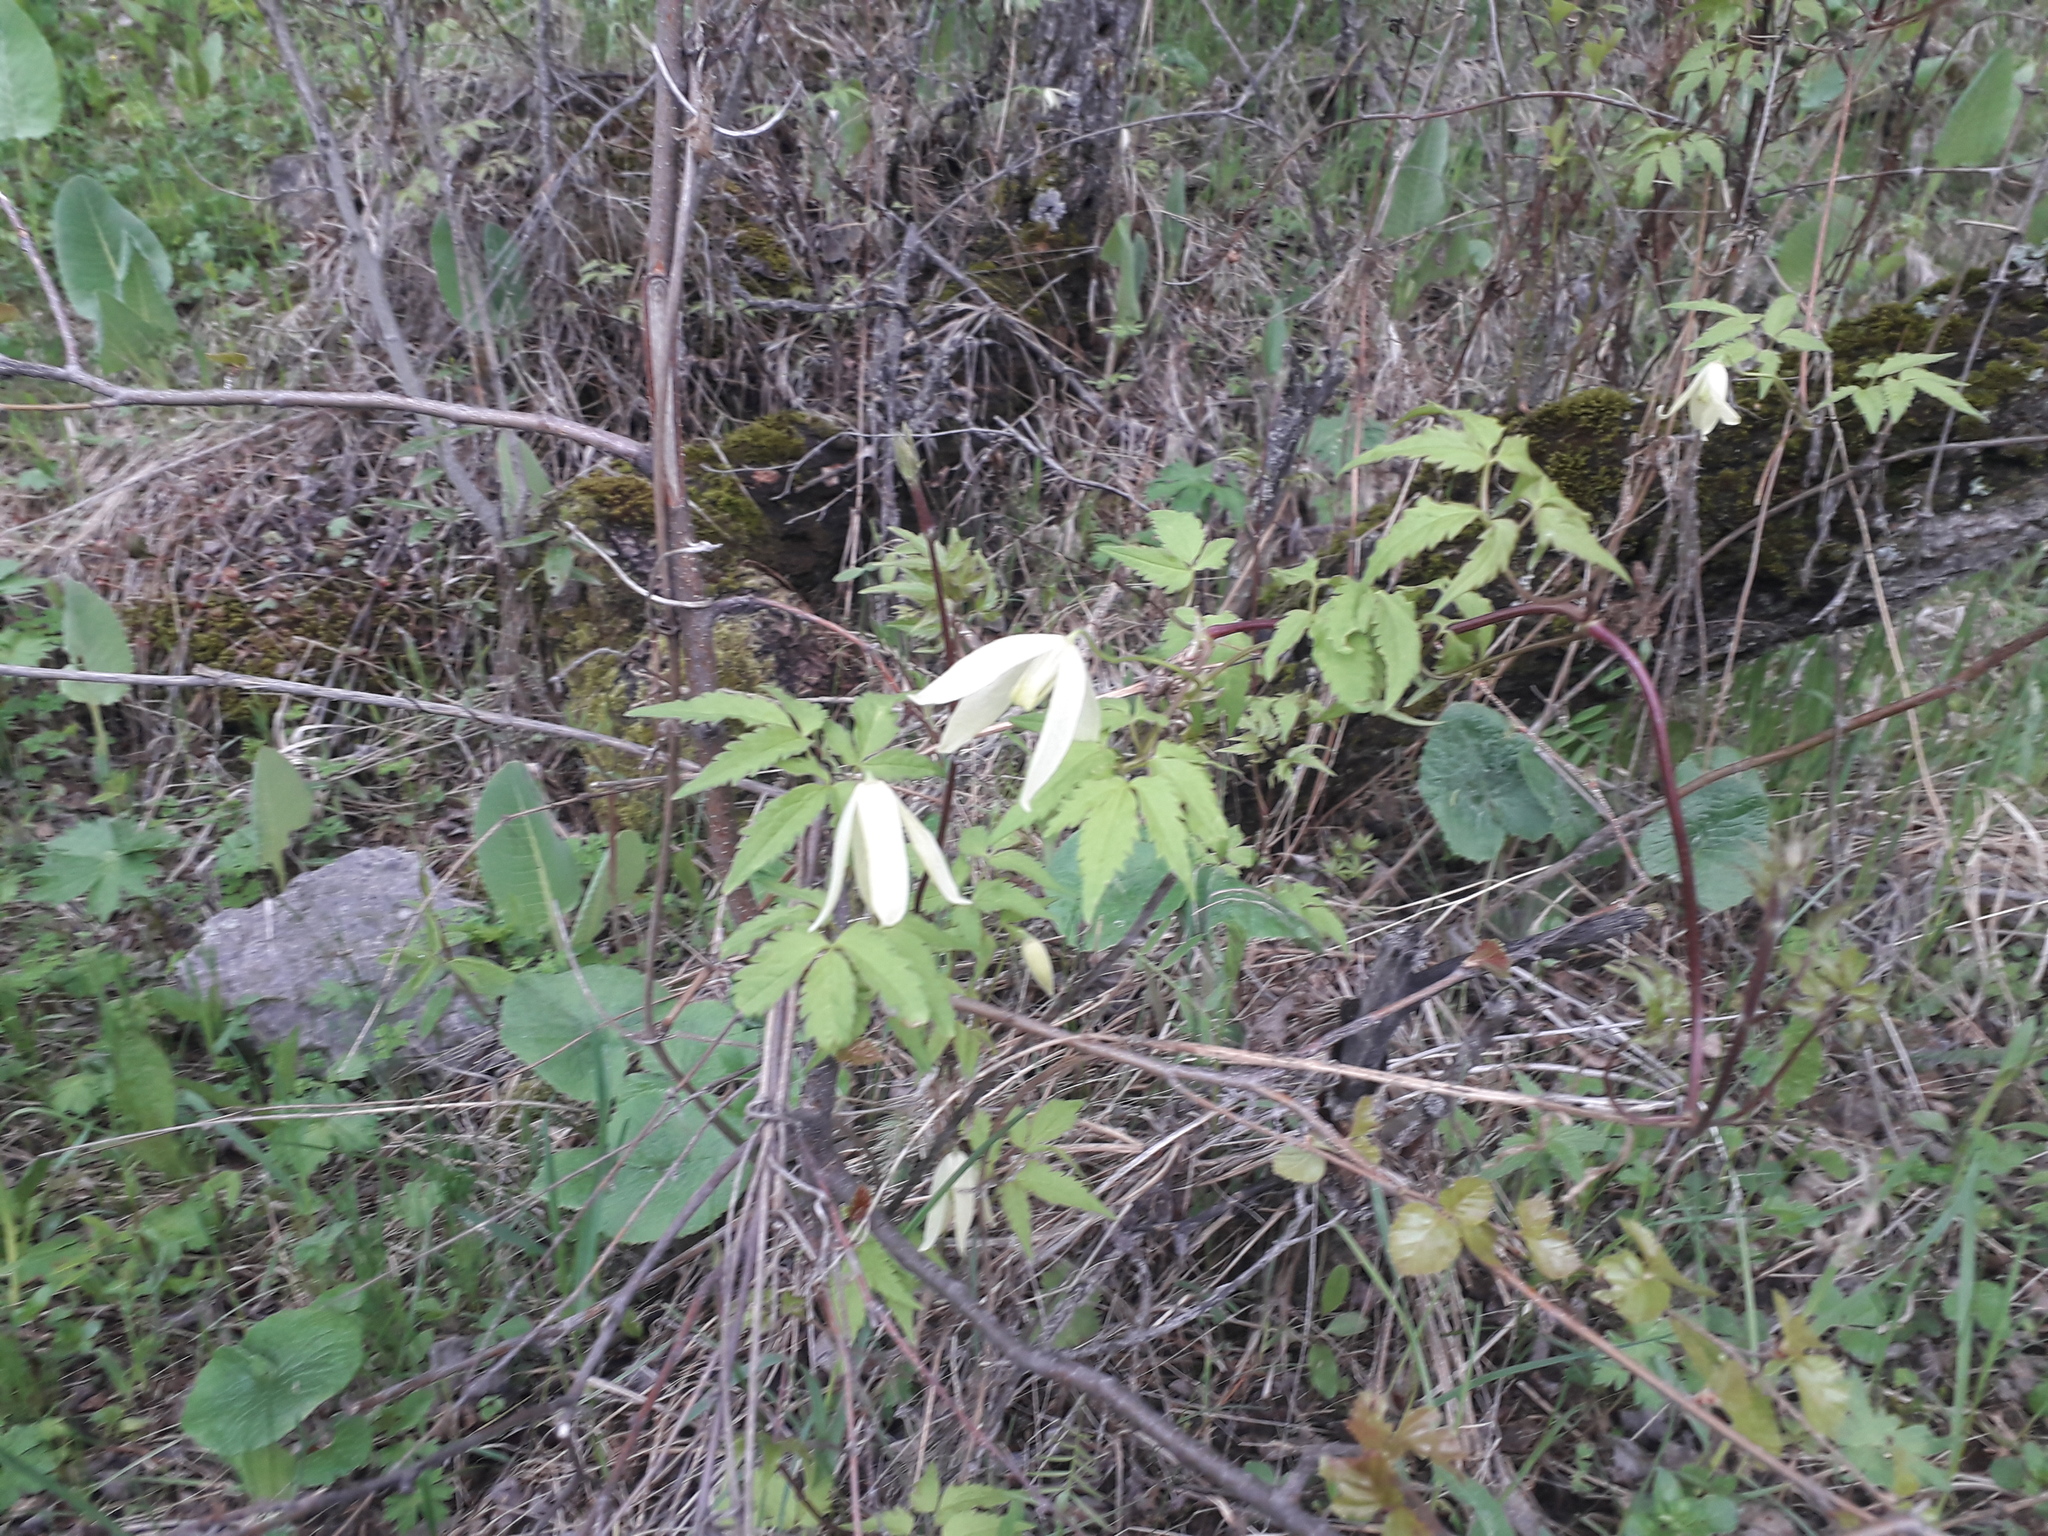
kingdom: Plantae
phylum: Tracheophyta
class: Magnoliopsida
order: Ranunculales
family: Ranunculaceae
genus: Clematis
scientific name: Clematis sibirica
